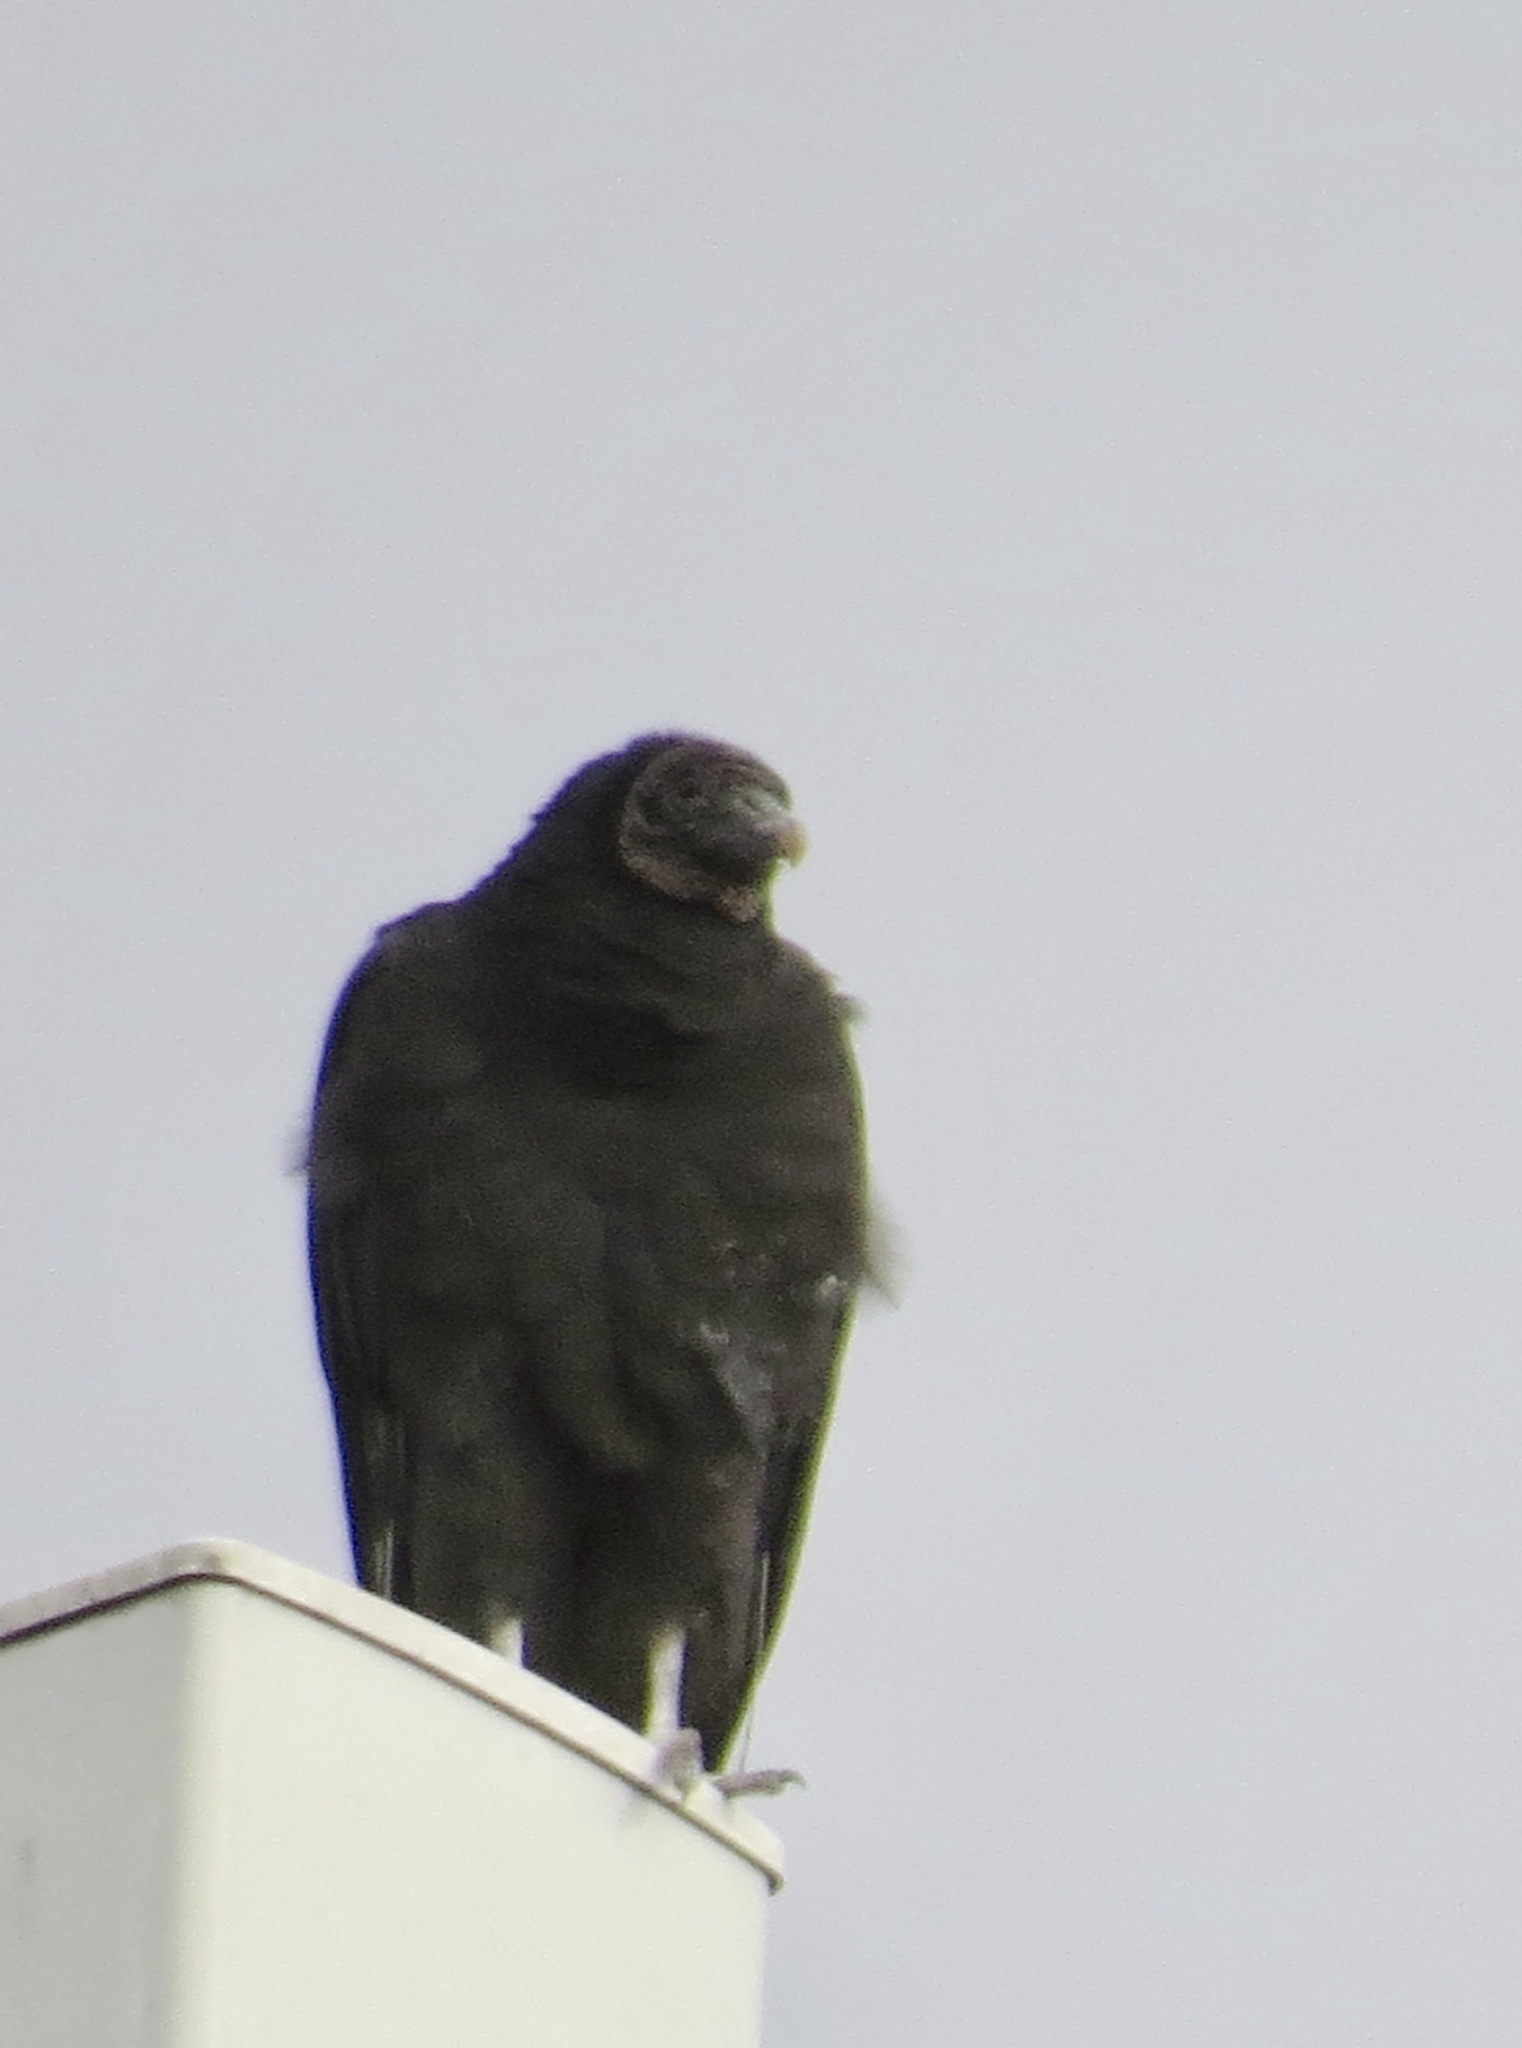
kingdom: Animalia
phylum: Chordata
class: Aves
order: Accipitriformes
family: Cathartidae
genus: Coragyps
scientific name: Coragyps atratus
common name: Black vulture
